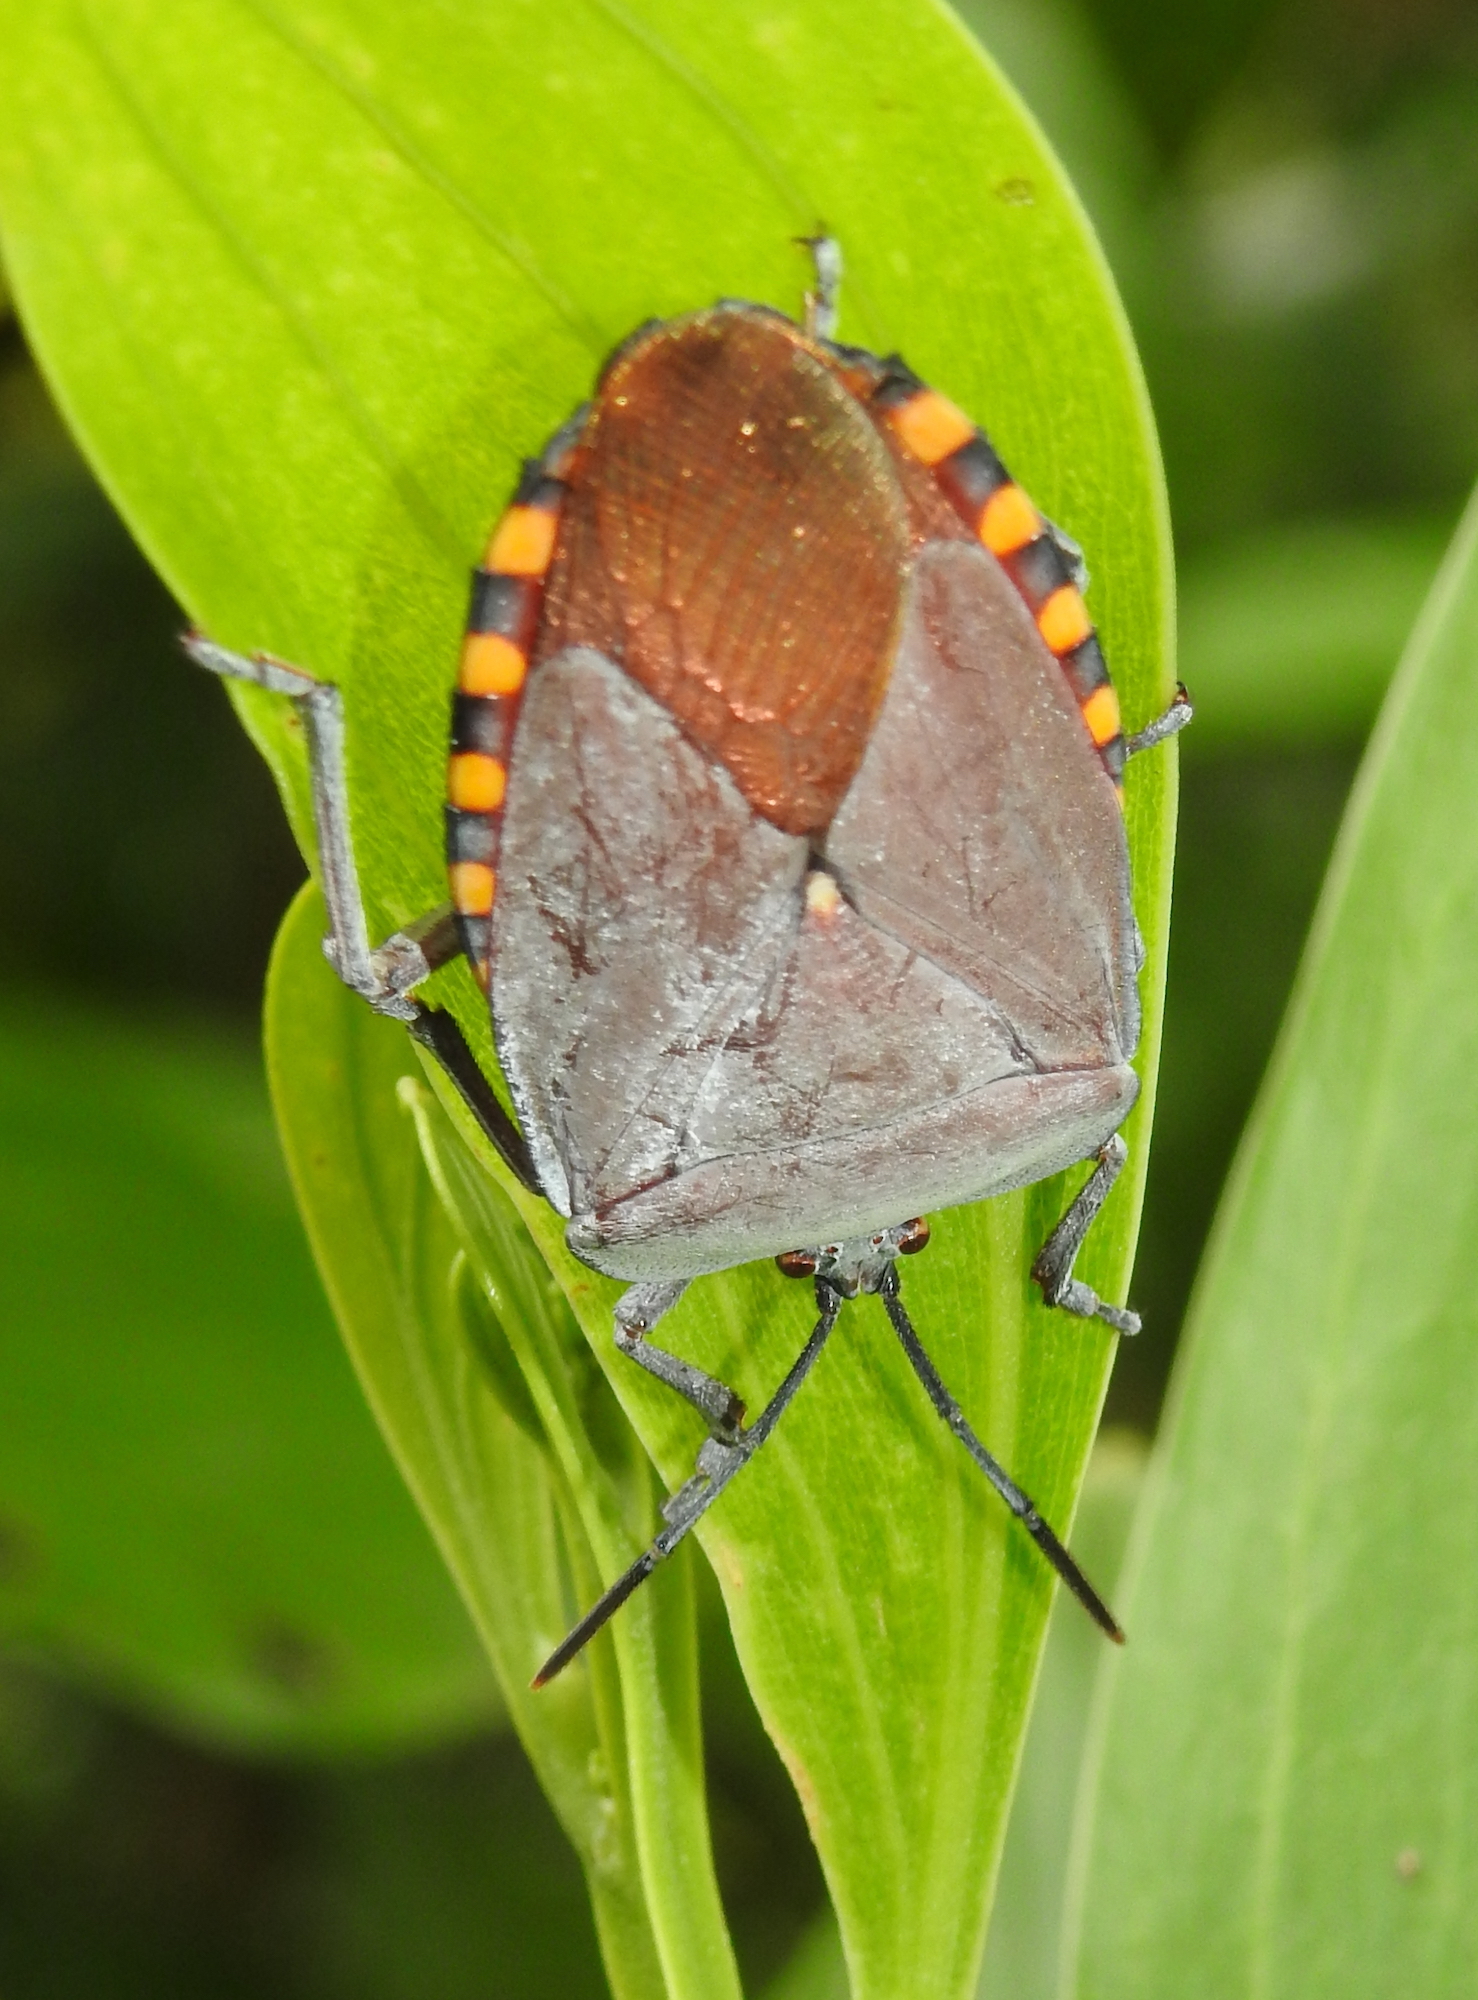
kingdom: Animalia
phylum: Arthropoda
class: Insecta
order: Hemiptera
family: Tessaratomidae
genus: Pycanum
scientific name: Pycanum alternatum
